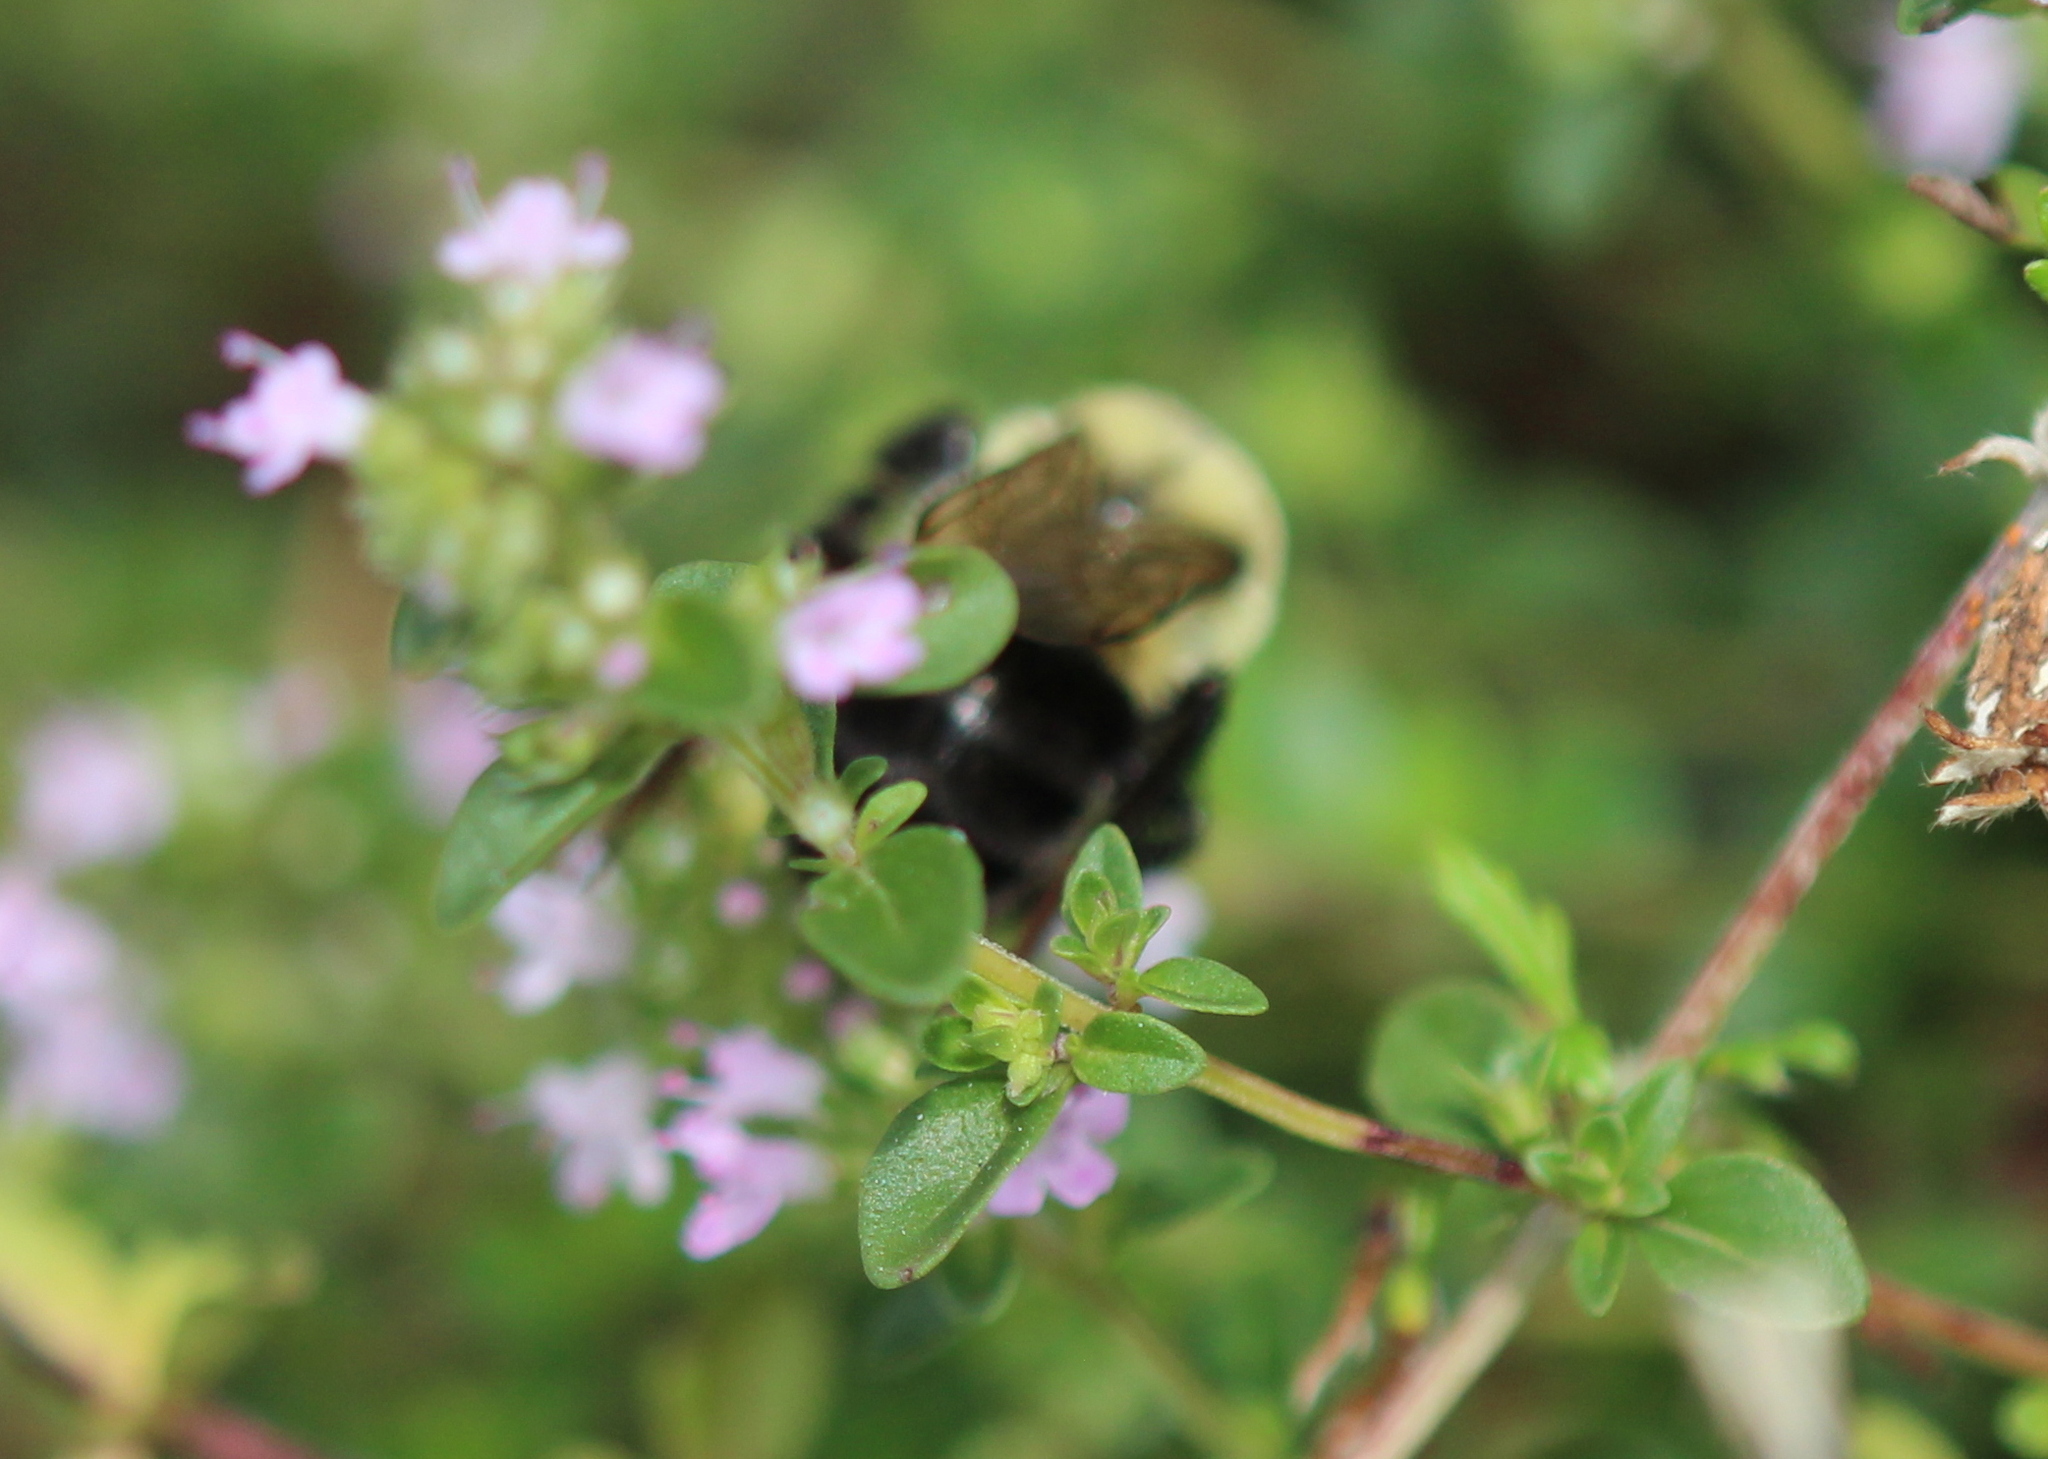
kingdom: Animalia
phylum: Arthropoda
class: Insecta
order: Hymenoptera
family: Apidae
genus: Bombus
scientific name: Bombus impatiens
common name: Common eastern bumble bee
